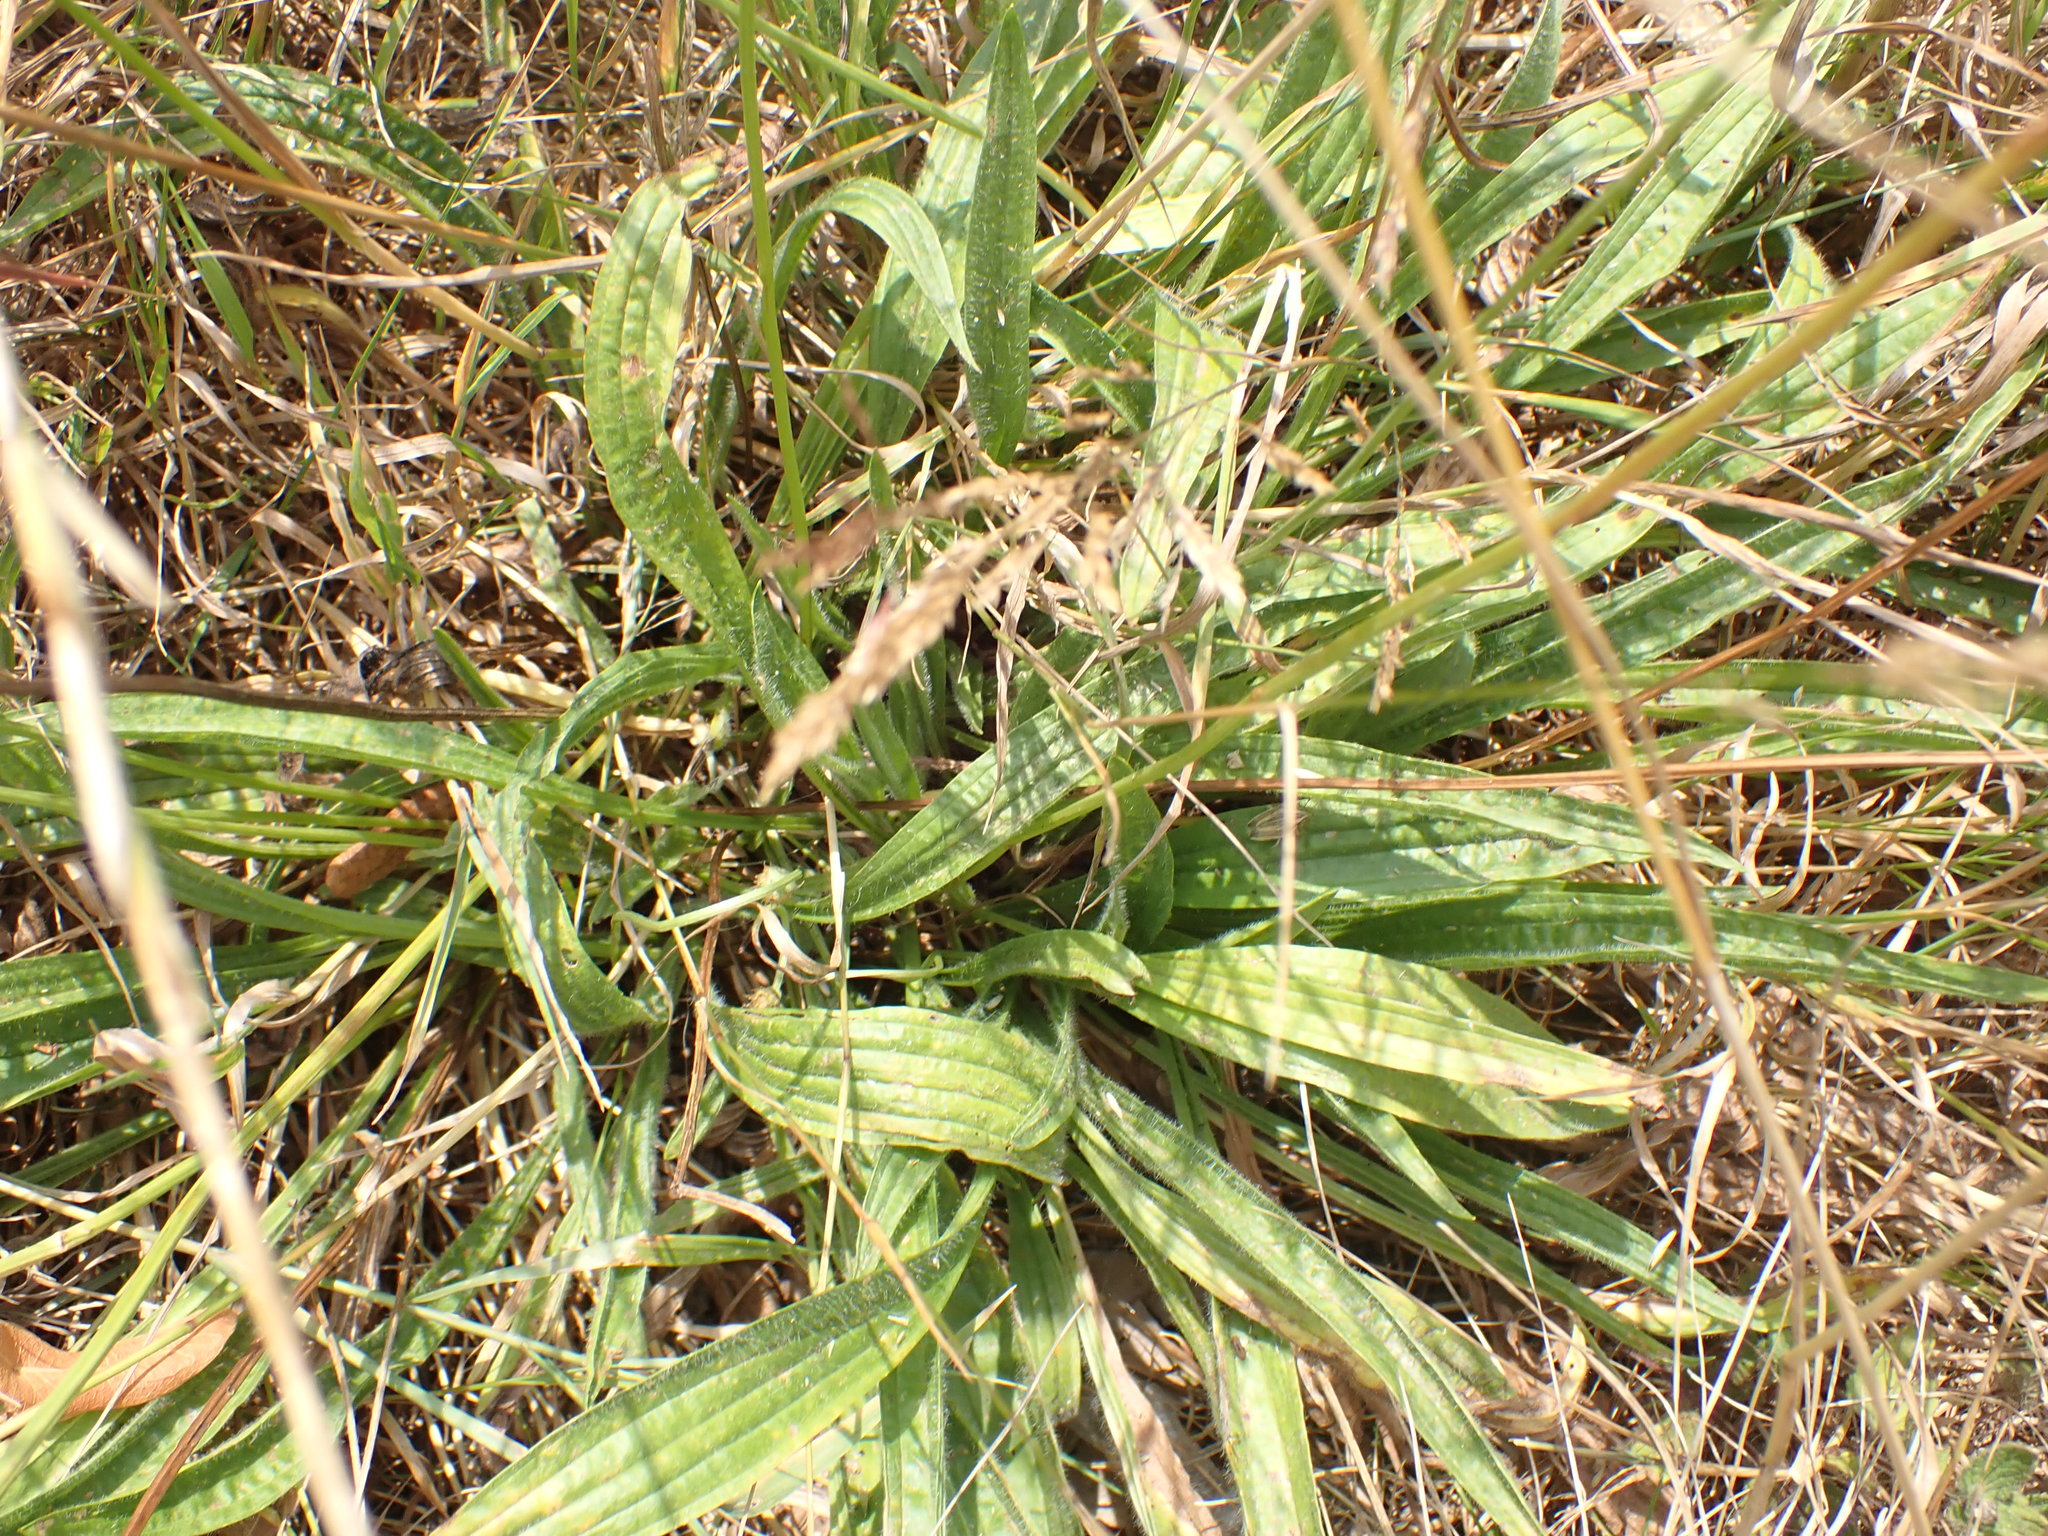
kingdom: Plantae
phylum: Tracheophyta
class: Magnoliopsida
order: Lamiales
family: Plantaginaceae
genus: Plantago
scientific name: Plantago lanceolata
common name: Ribwort plantain
